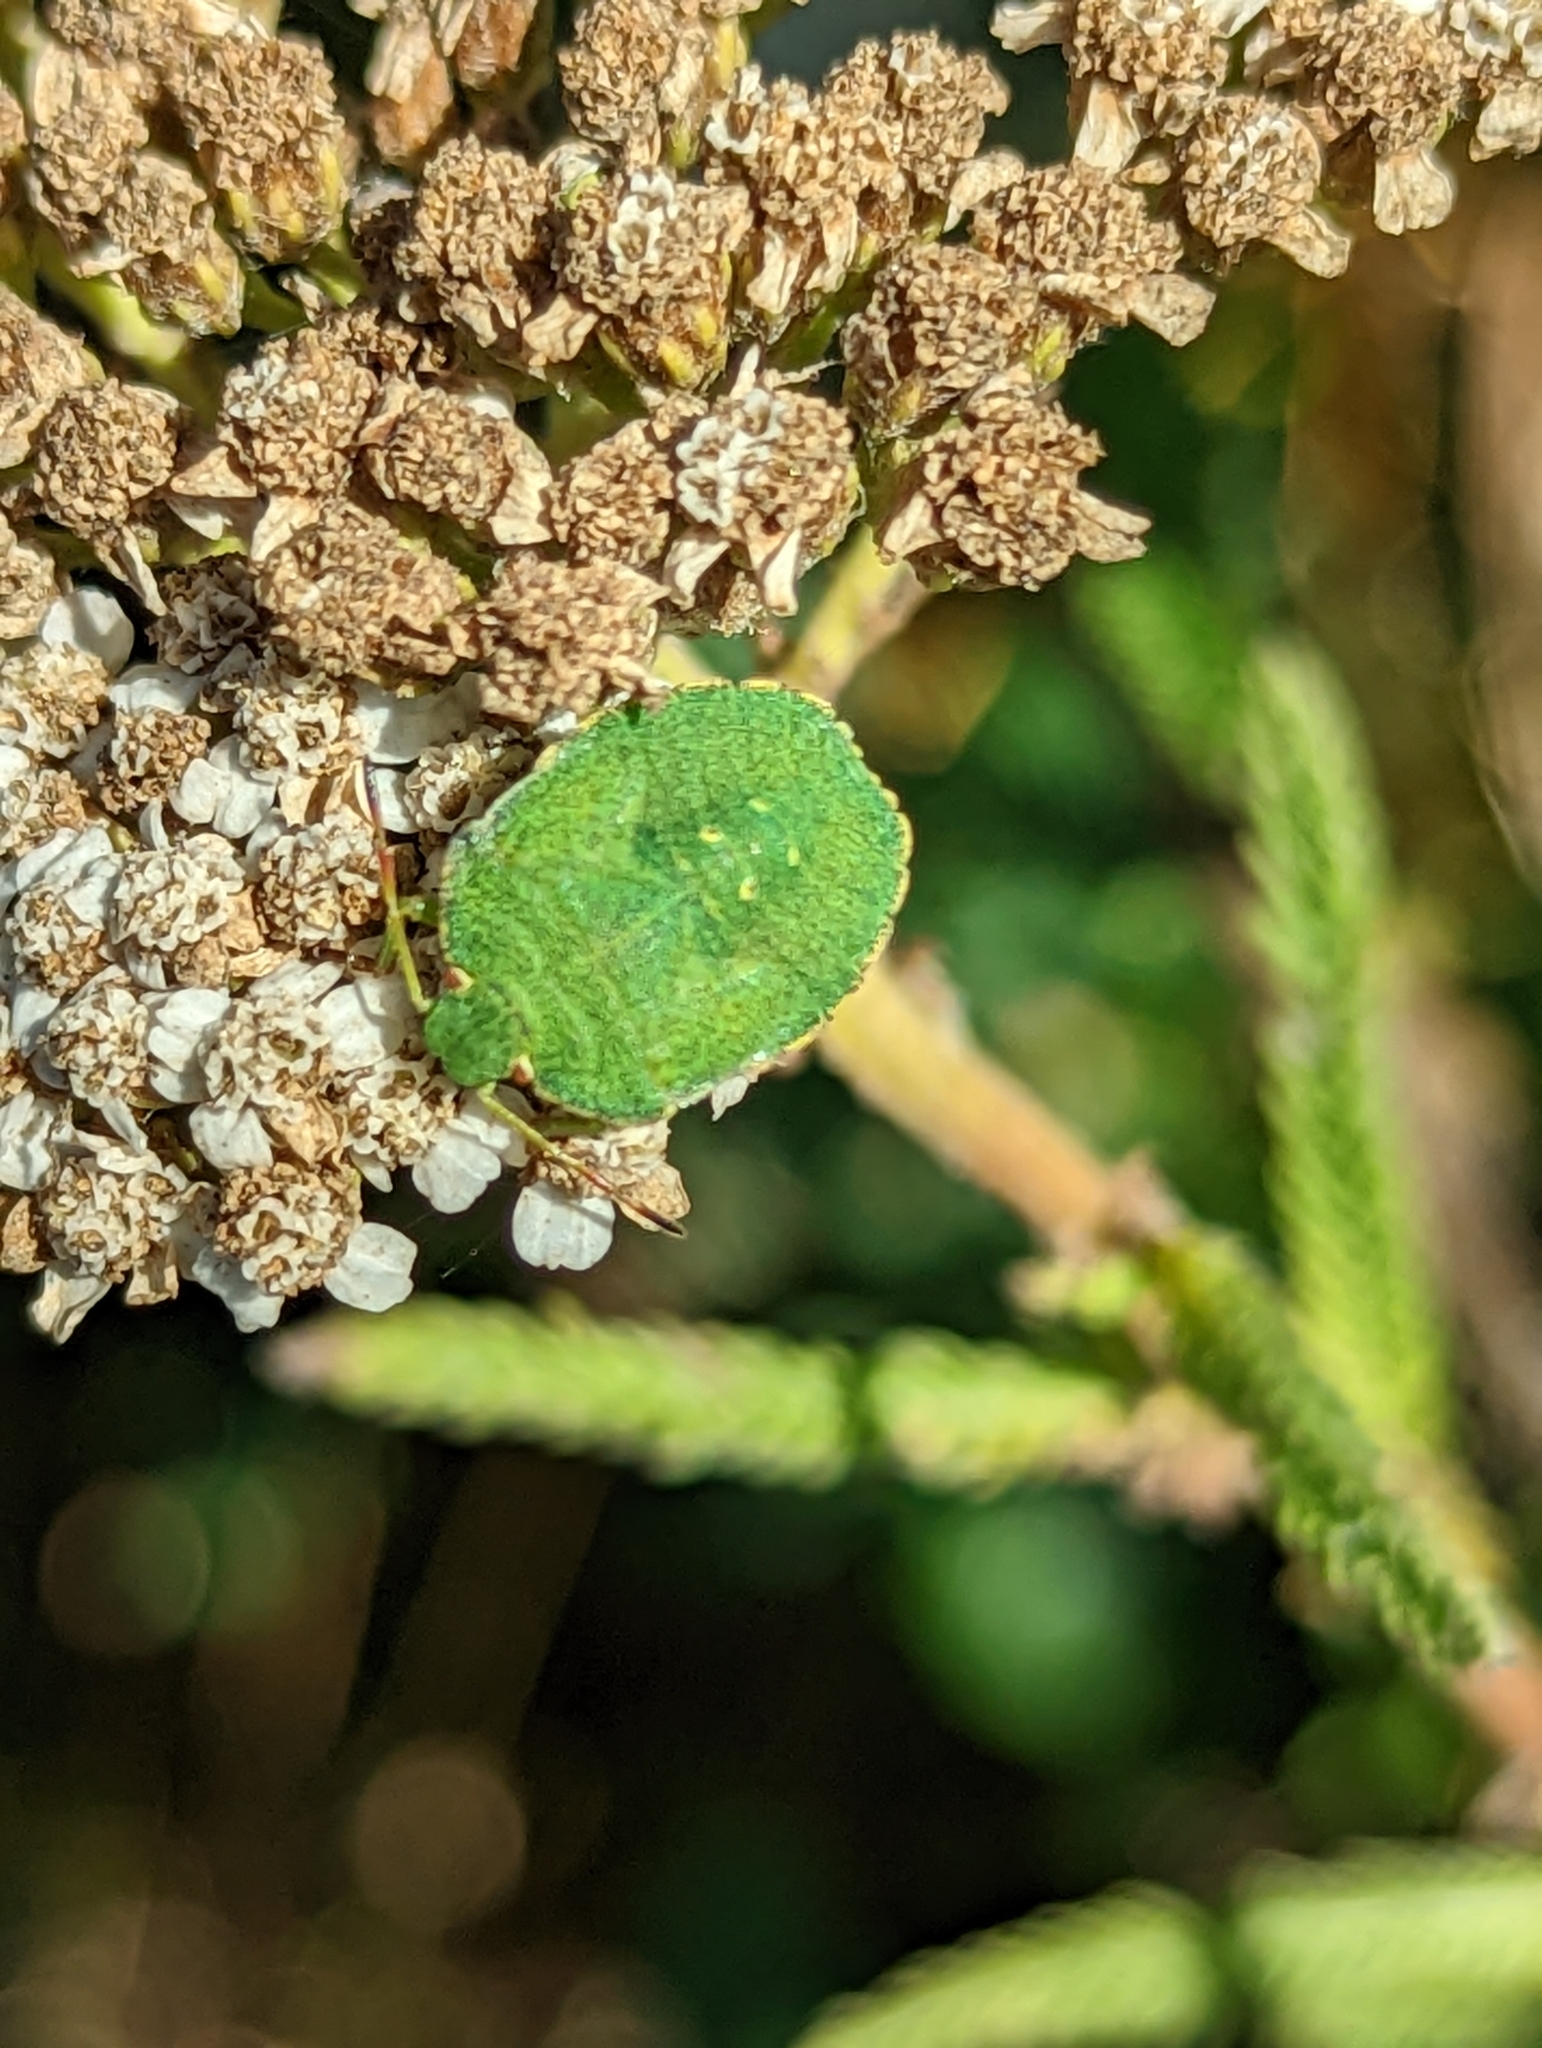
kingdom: Animalia
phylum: Arthropoda
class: Insecta
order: Hemiptera
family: Pentatomidae
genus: Palomena
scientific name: Palomena prasina
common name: Green shieldbug
